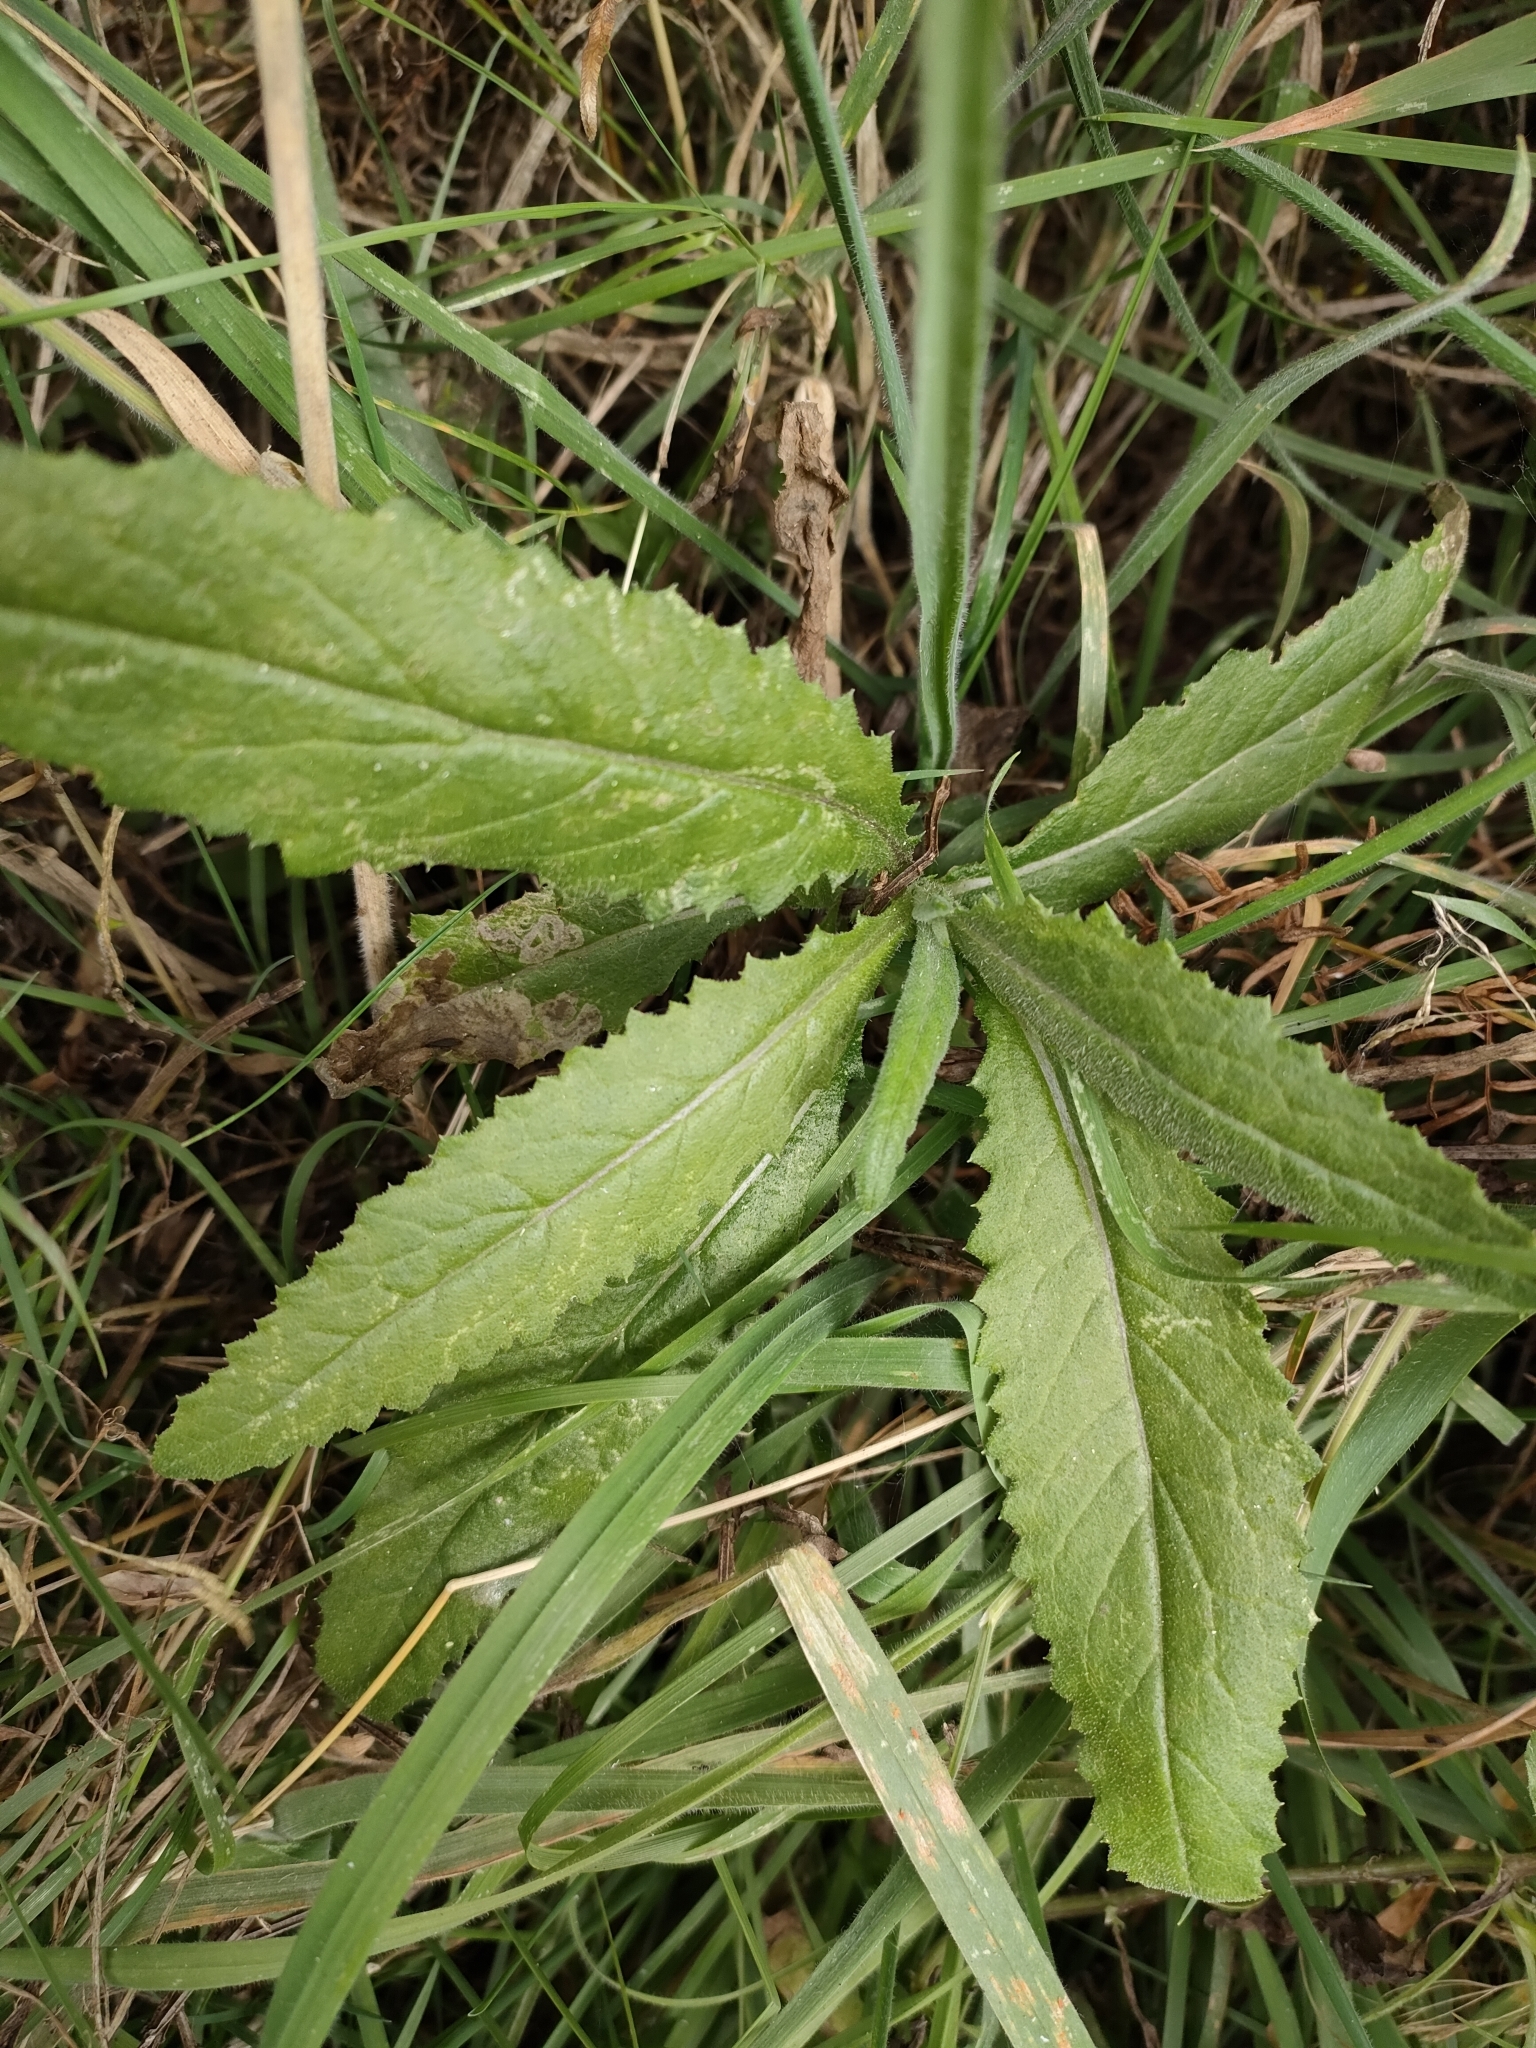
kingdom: Plantae
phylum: Tracheophyta
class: Magnoliopsida
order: Asterales
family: Asteraceae
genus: Senecio
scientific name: Senecio minimus
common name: Toothed fireweed
